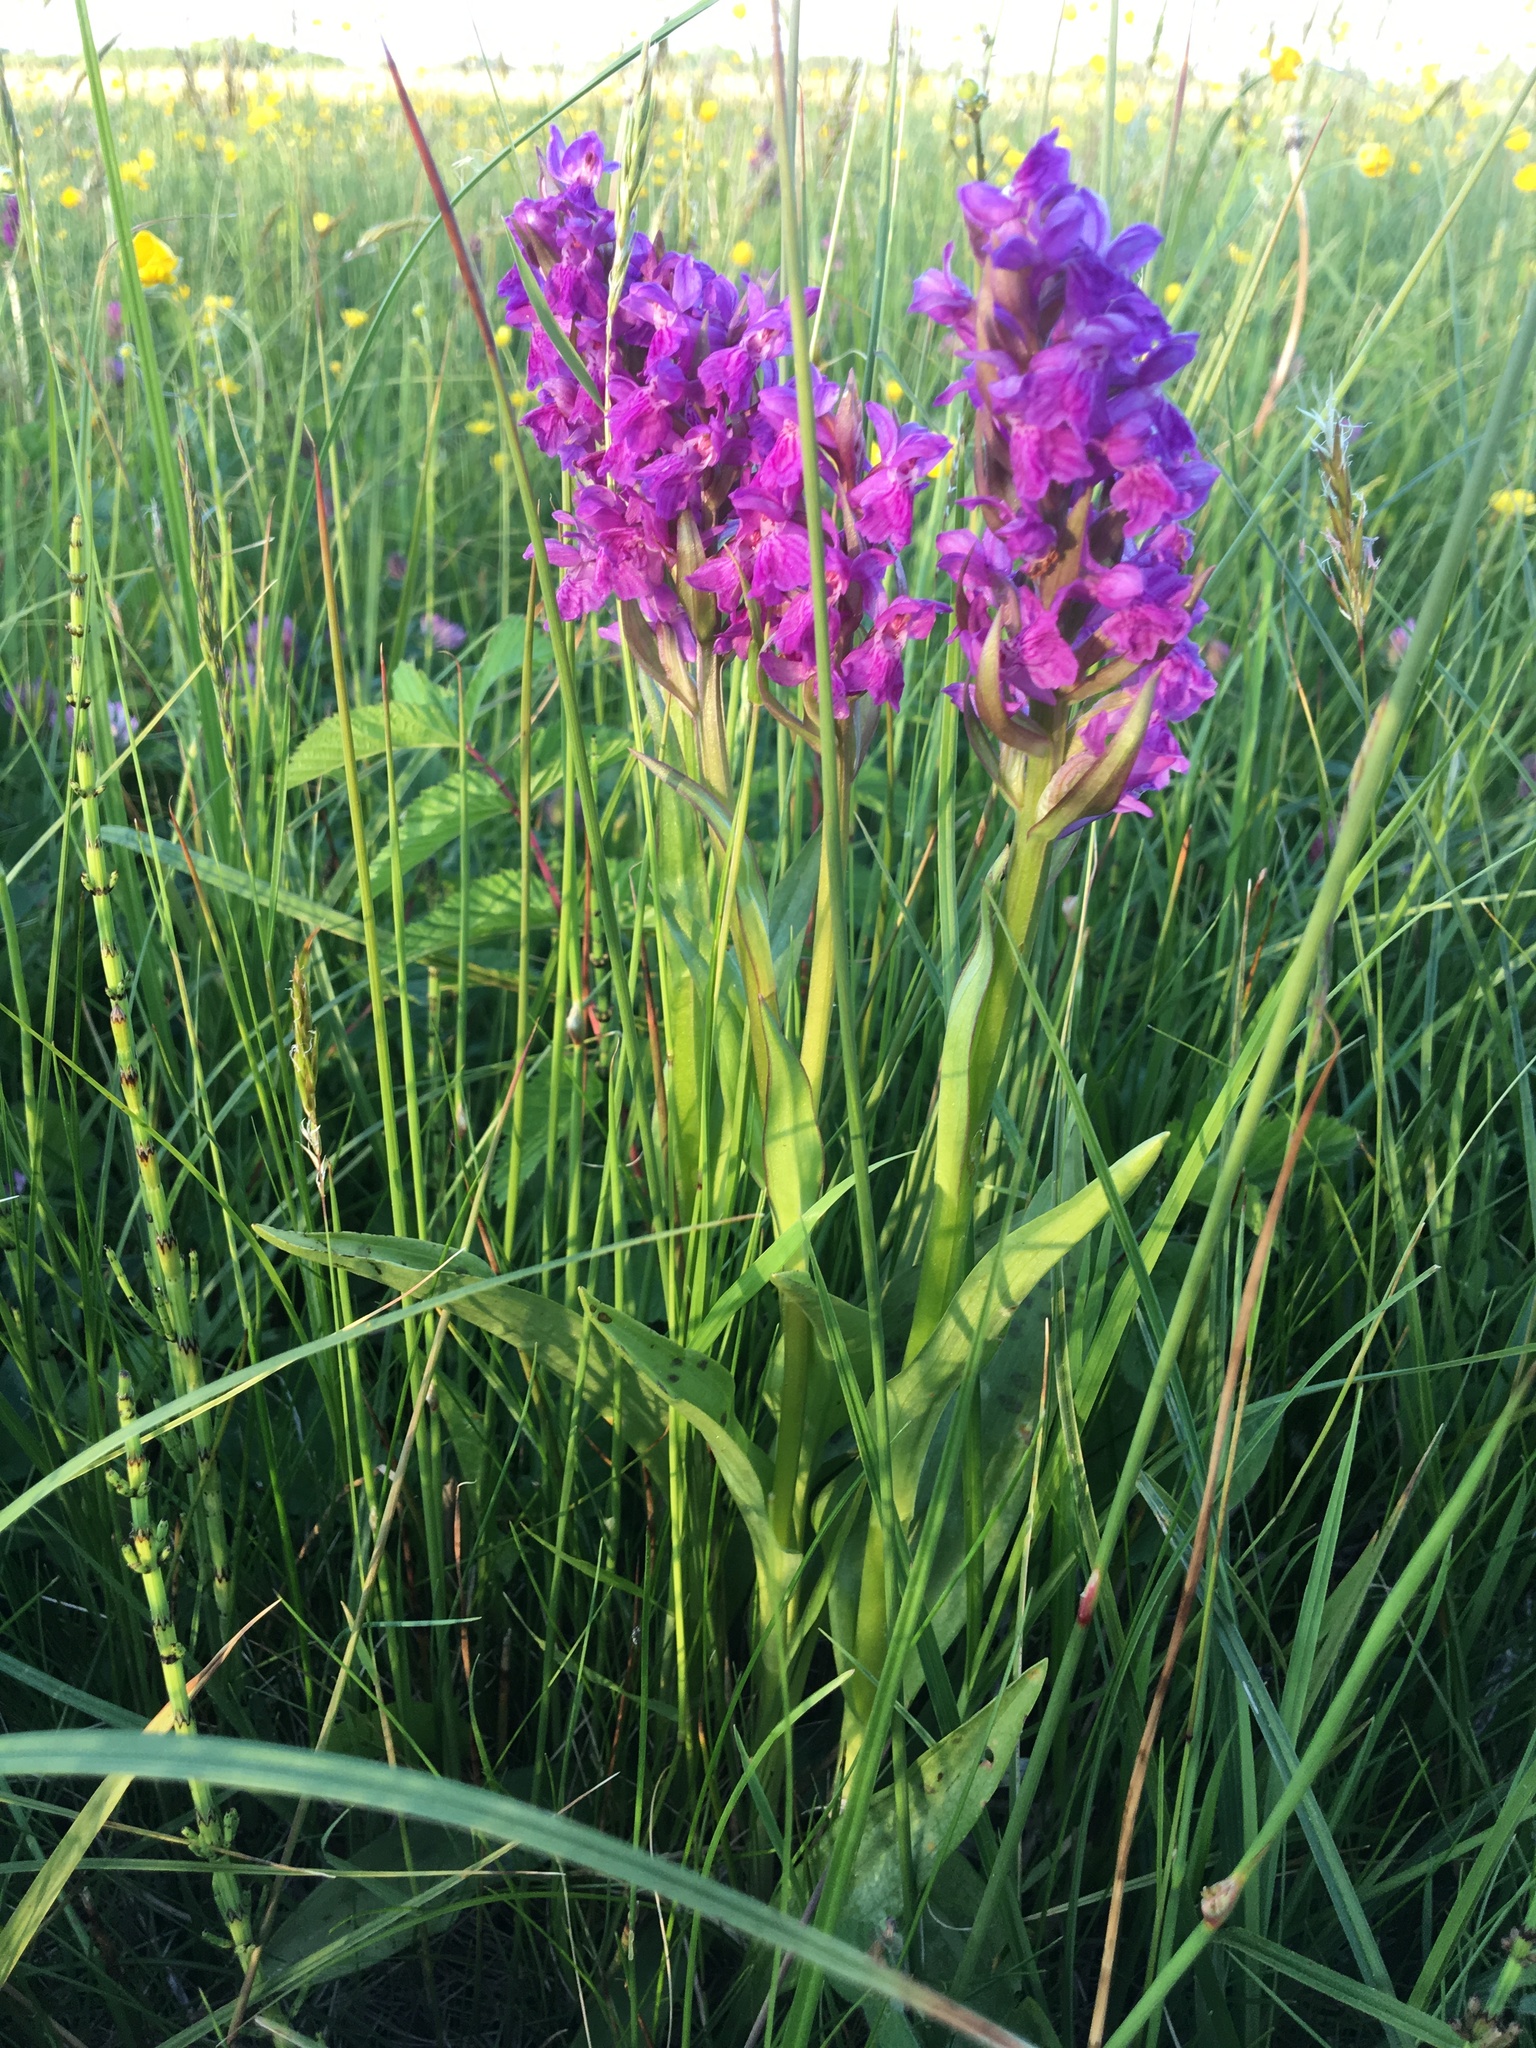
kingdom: Plantae
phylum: Tracheophyta
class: Liliopsida
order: Asparagales
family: Orchidaceae
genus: Dactylorhiza
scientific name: Dactylorhiza majalis
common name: Marsh orchid
